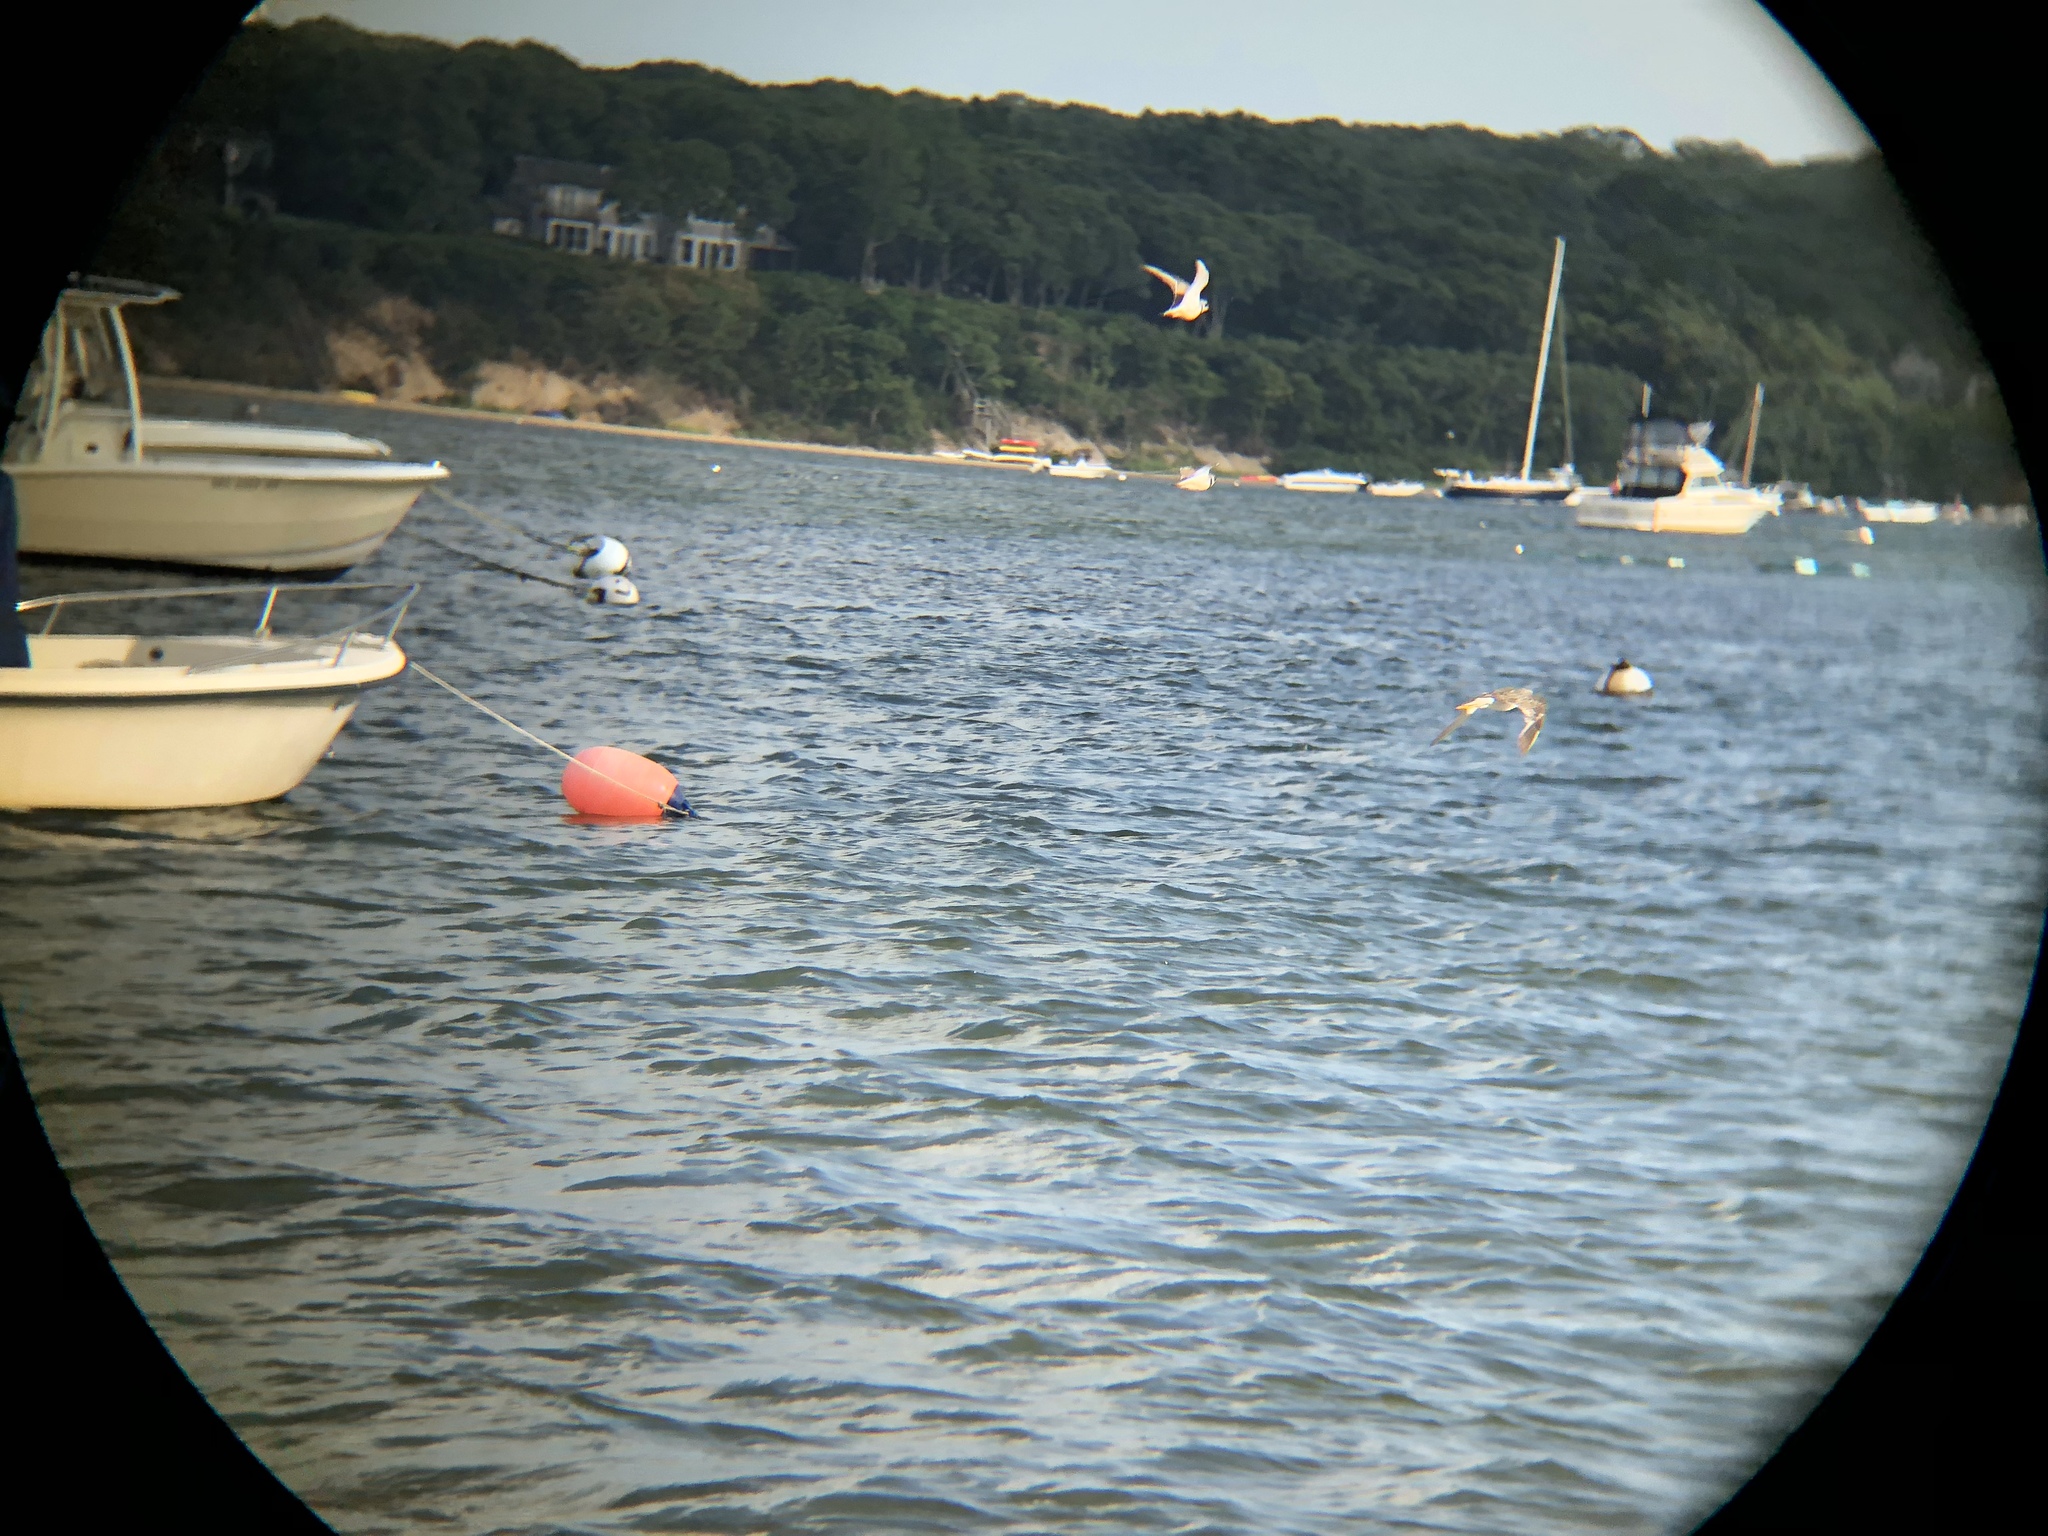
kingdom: Animalia
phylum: Chordata
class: Aves
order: Charadriiformes
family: Charadriidae
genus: Charadrius
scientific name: Charadrius semipalmatus
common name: Semipalmated plover
